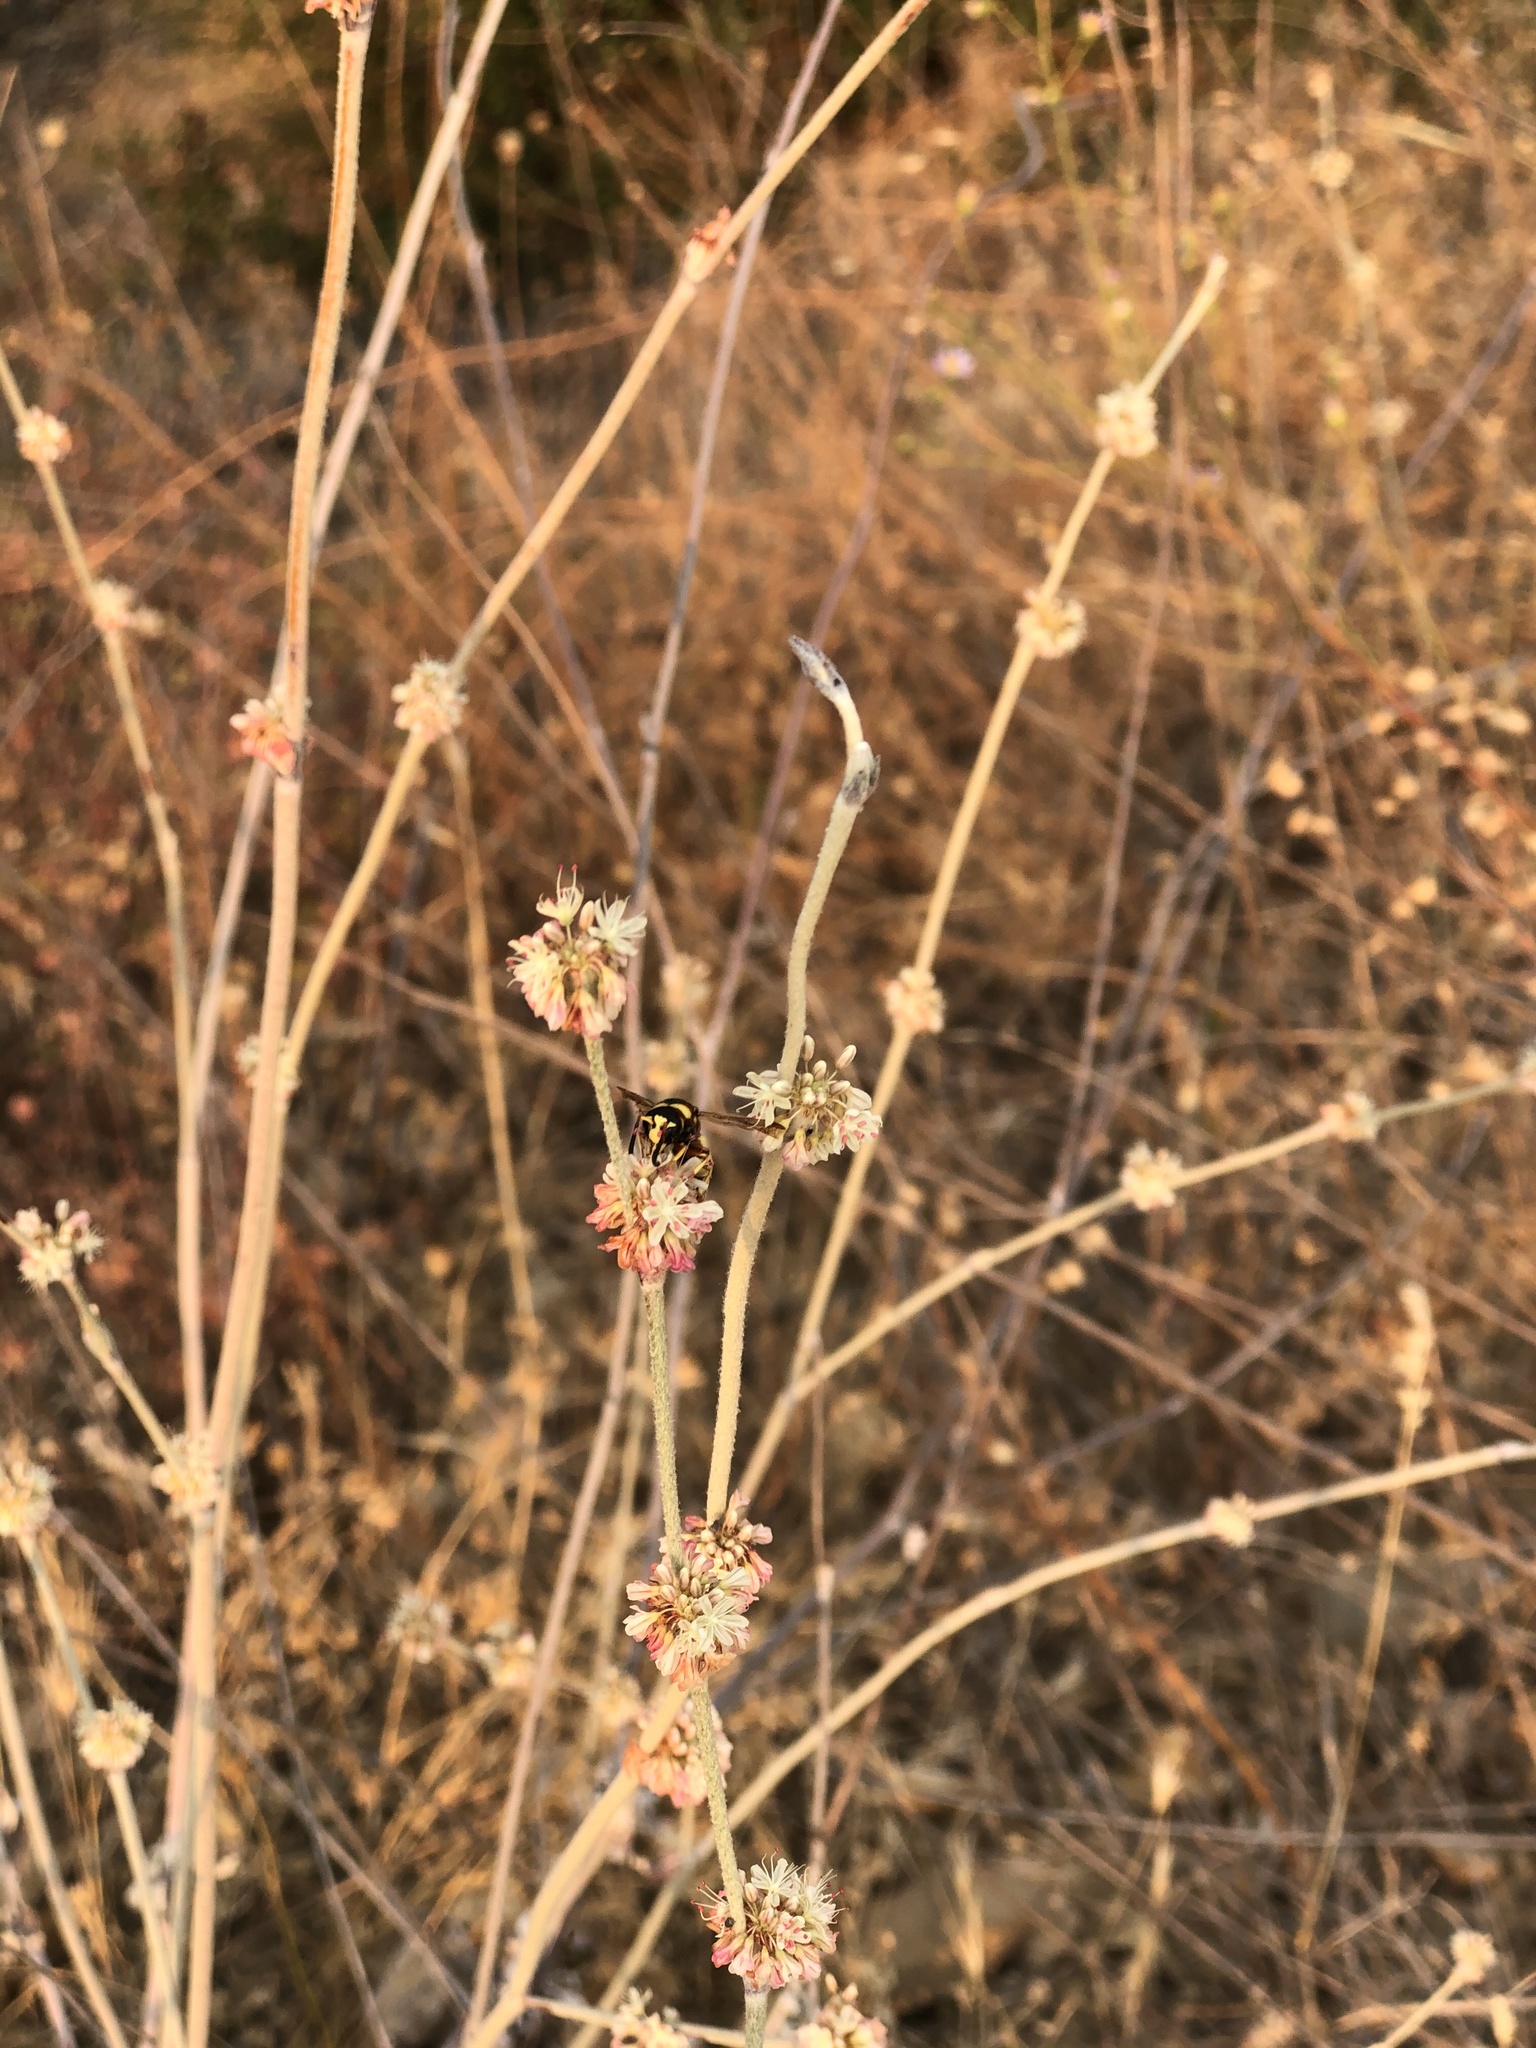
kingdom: Animalia
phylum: Arthropoda
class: Insecta
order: Hymenoptera
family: Eumenidae
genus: Euodynerus
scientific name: Euodynerus
